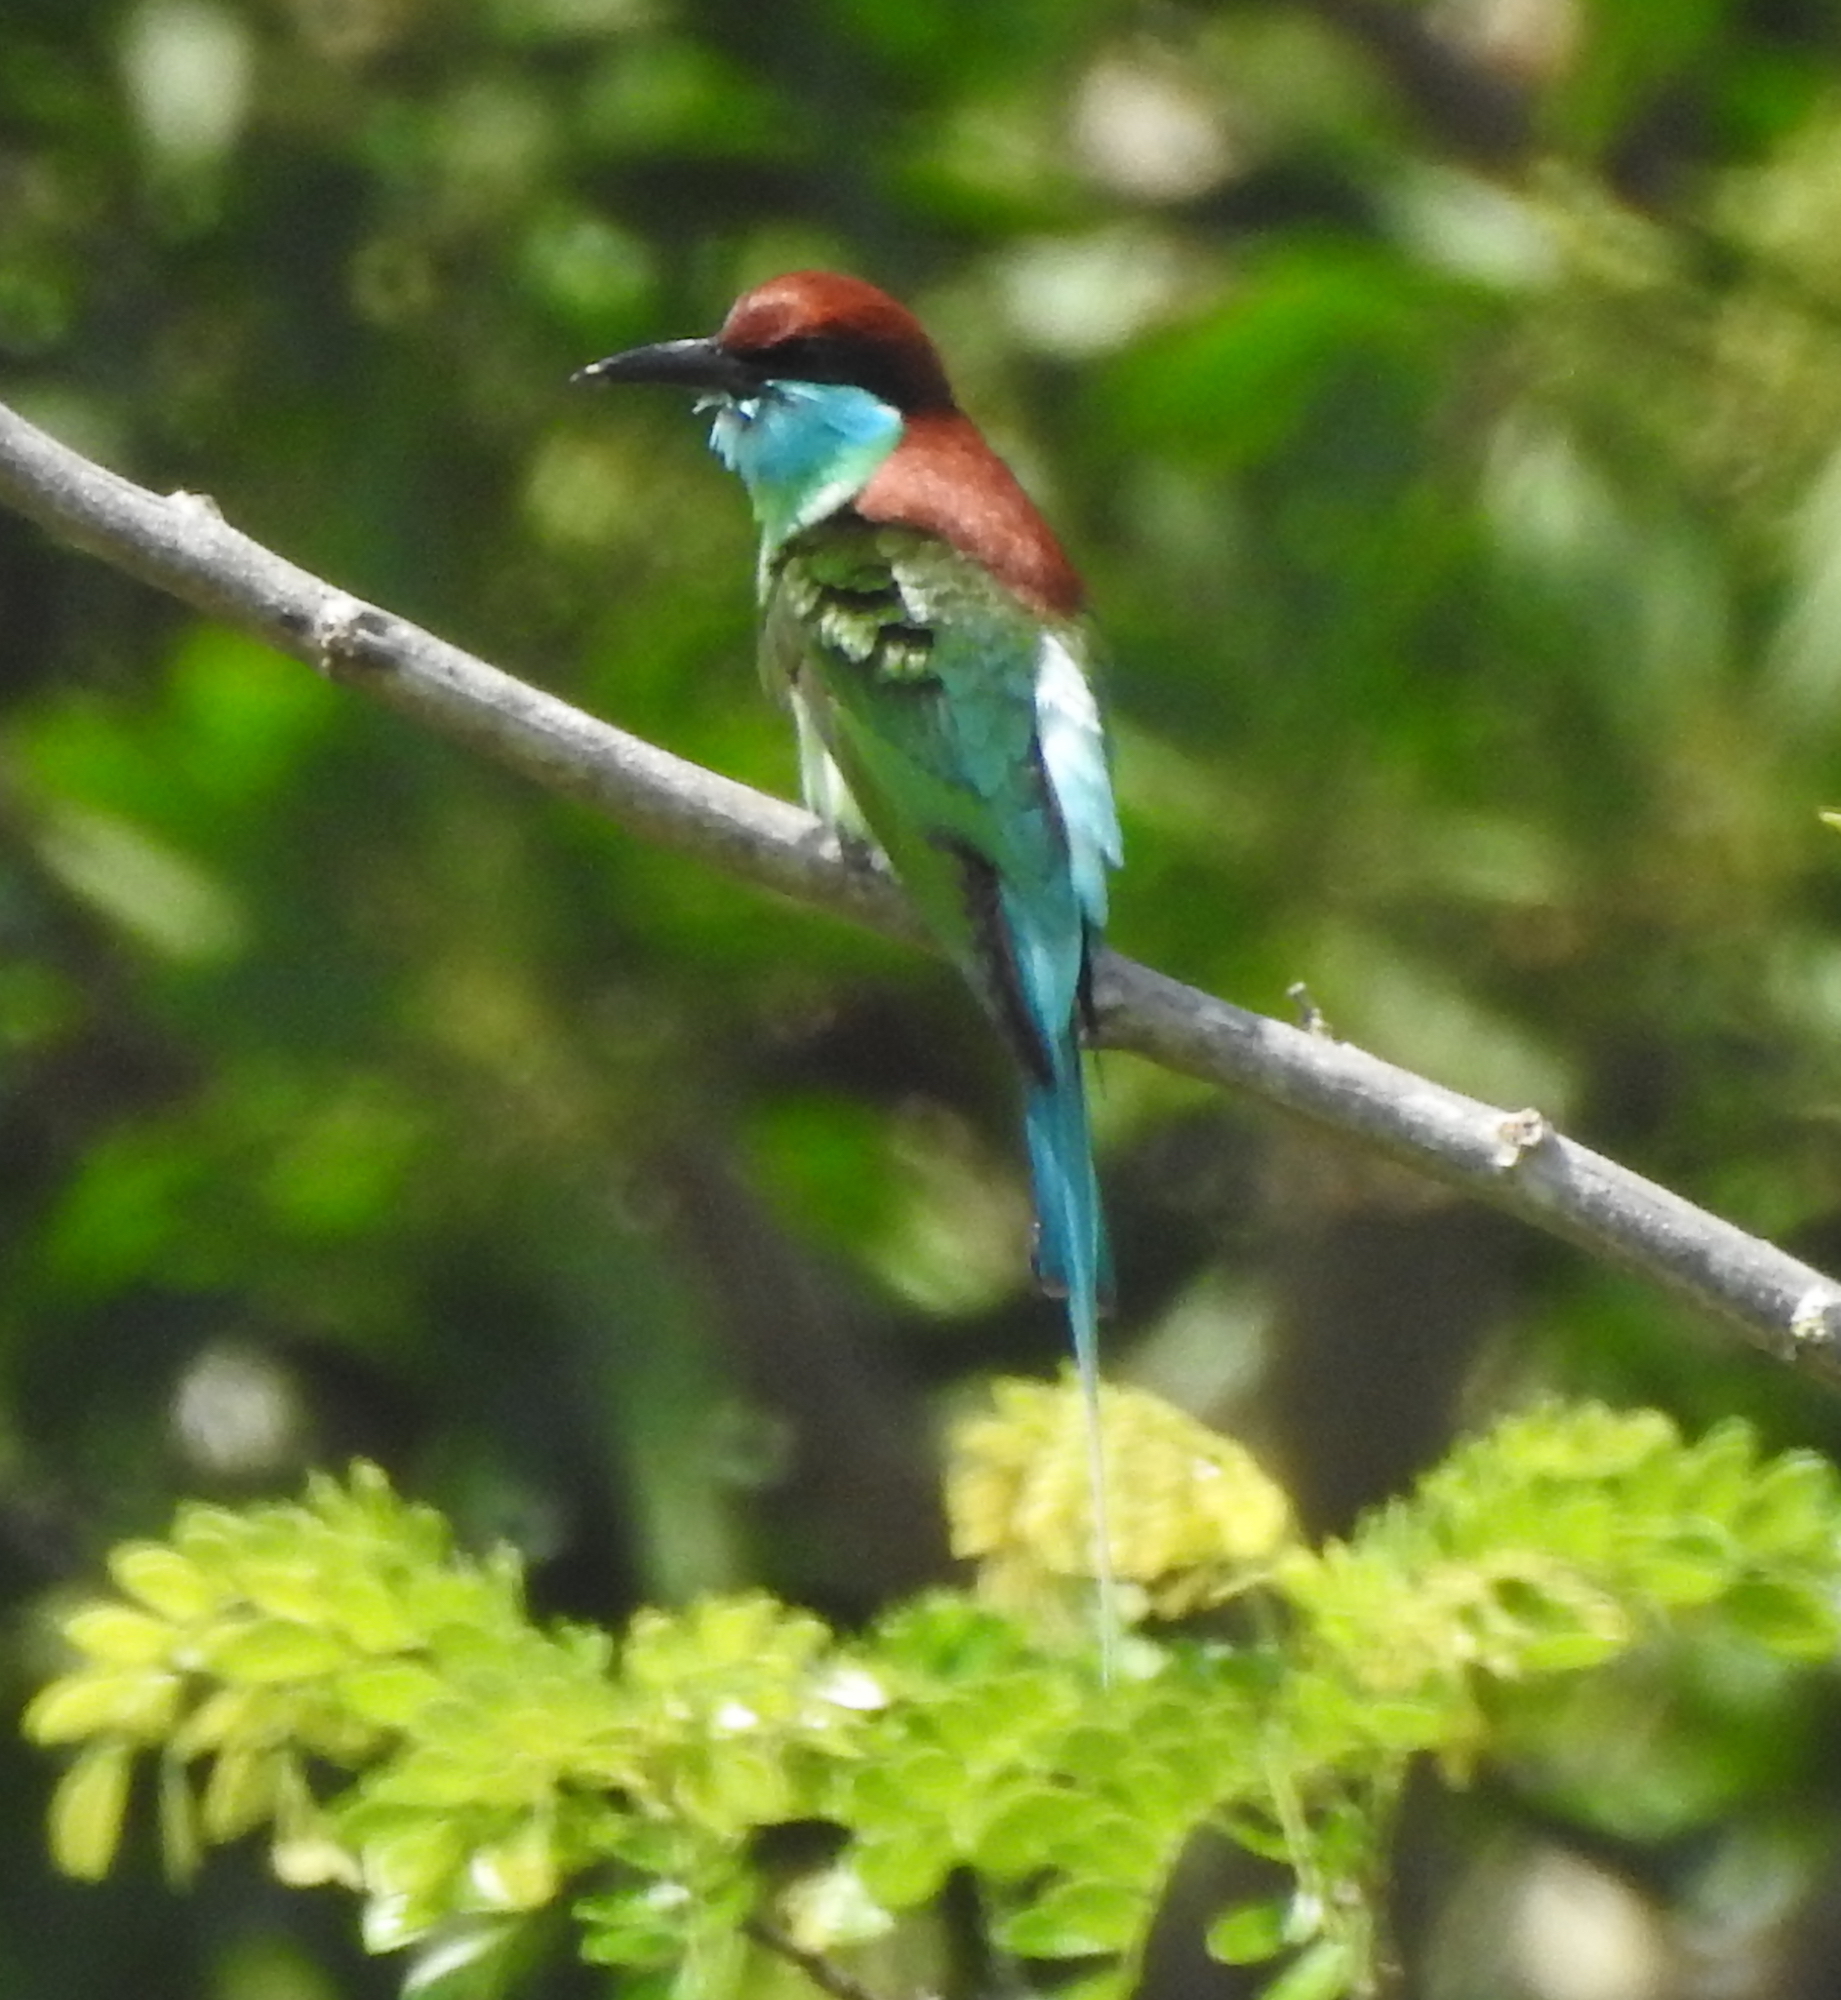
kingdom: Animalia
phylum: Chordata
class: Aves
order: Coraciiformes
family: Meropidae
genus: Merops
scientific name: Merops viridis
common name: Blue-throated bee-eater
